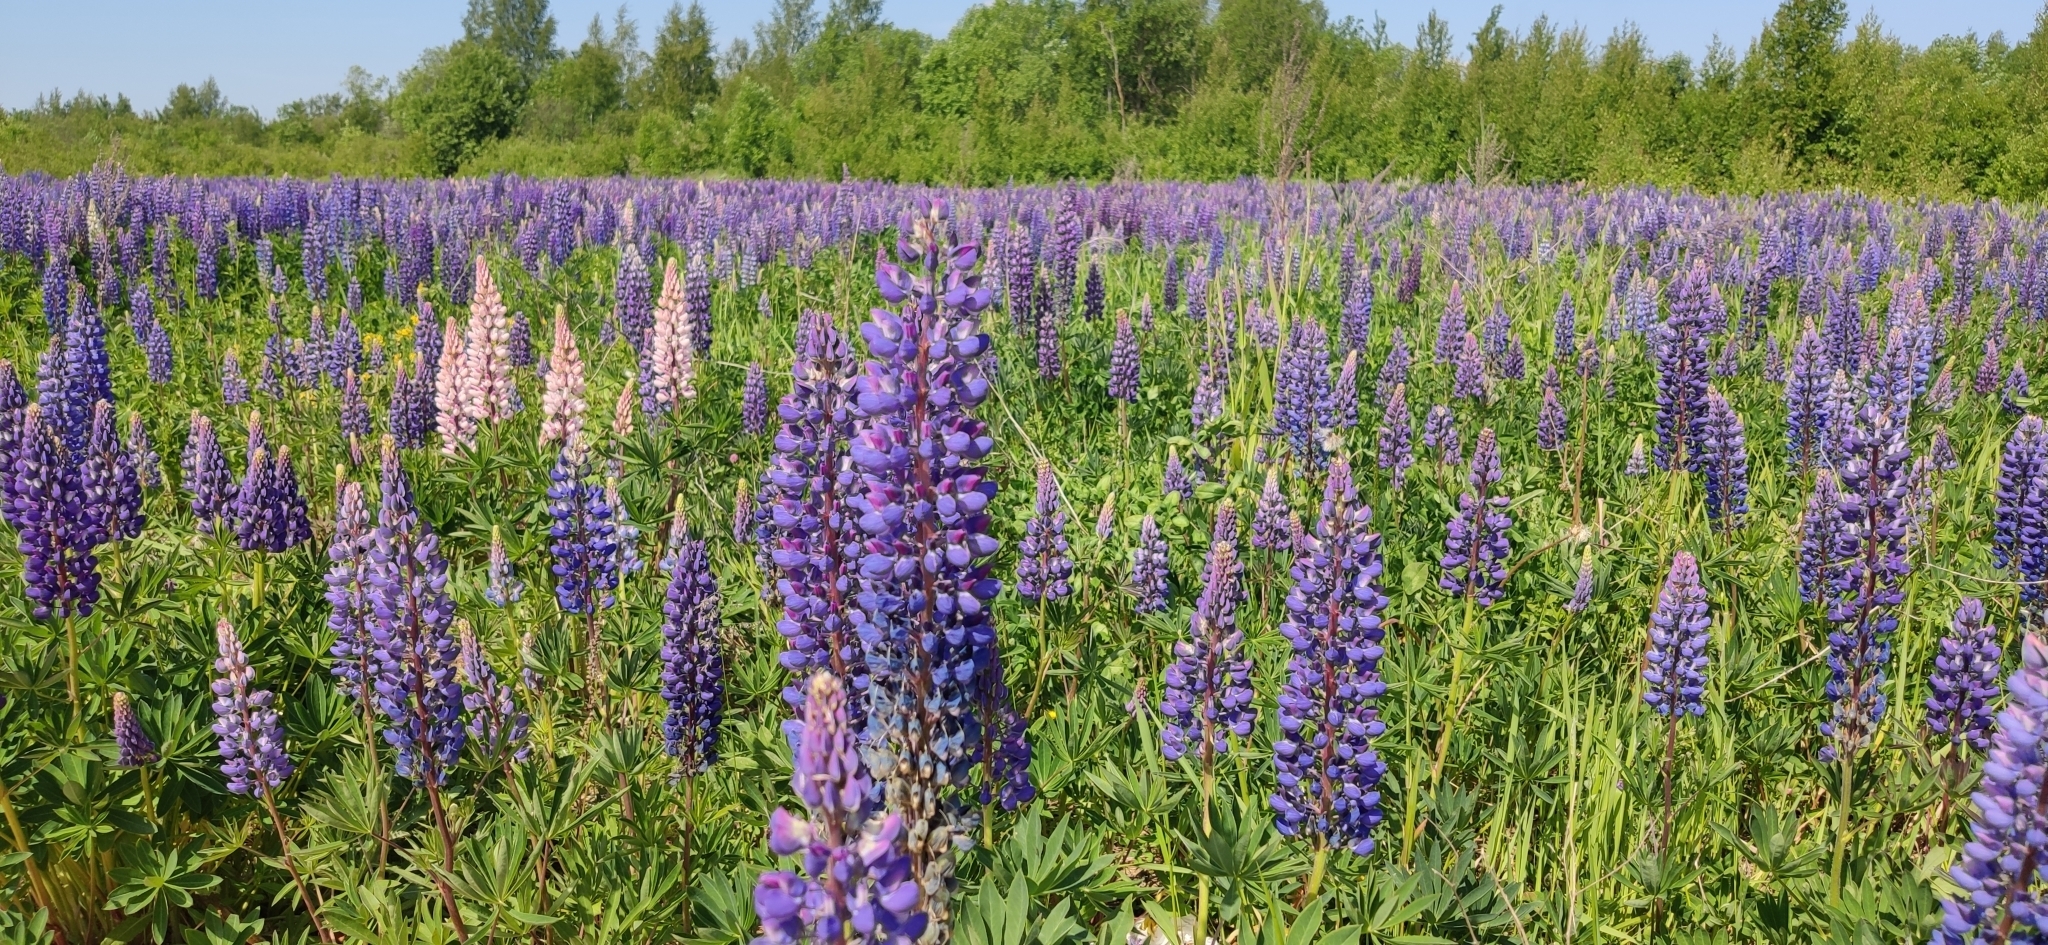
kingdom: Plantae
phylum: Tracheophyta
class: Magnoliopsida
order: Fabales
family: Fabaceae
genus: Lupinus
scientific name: Lupinus polyphyllus
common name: Garden lupin
